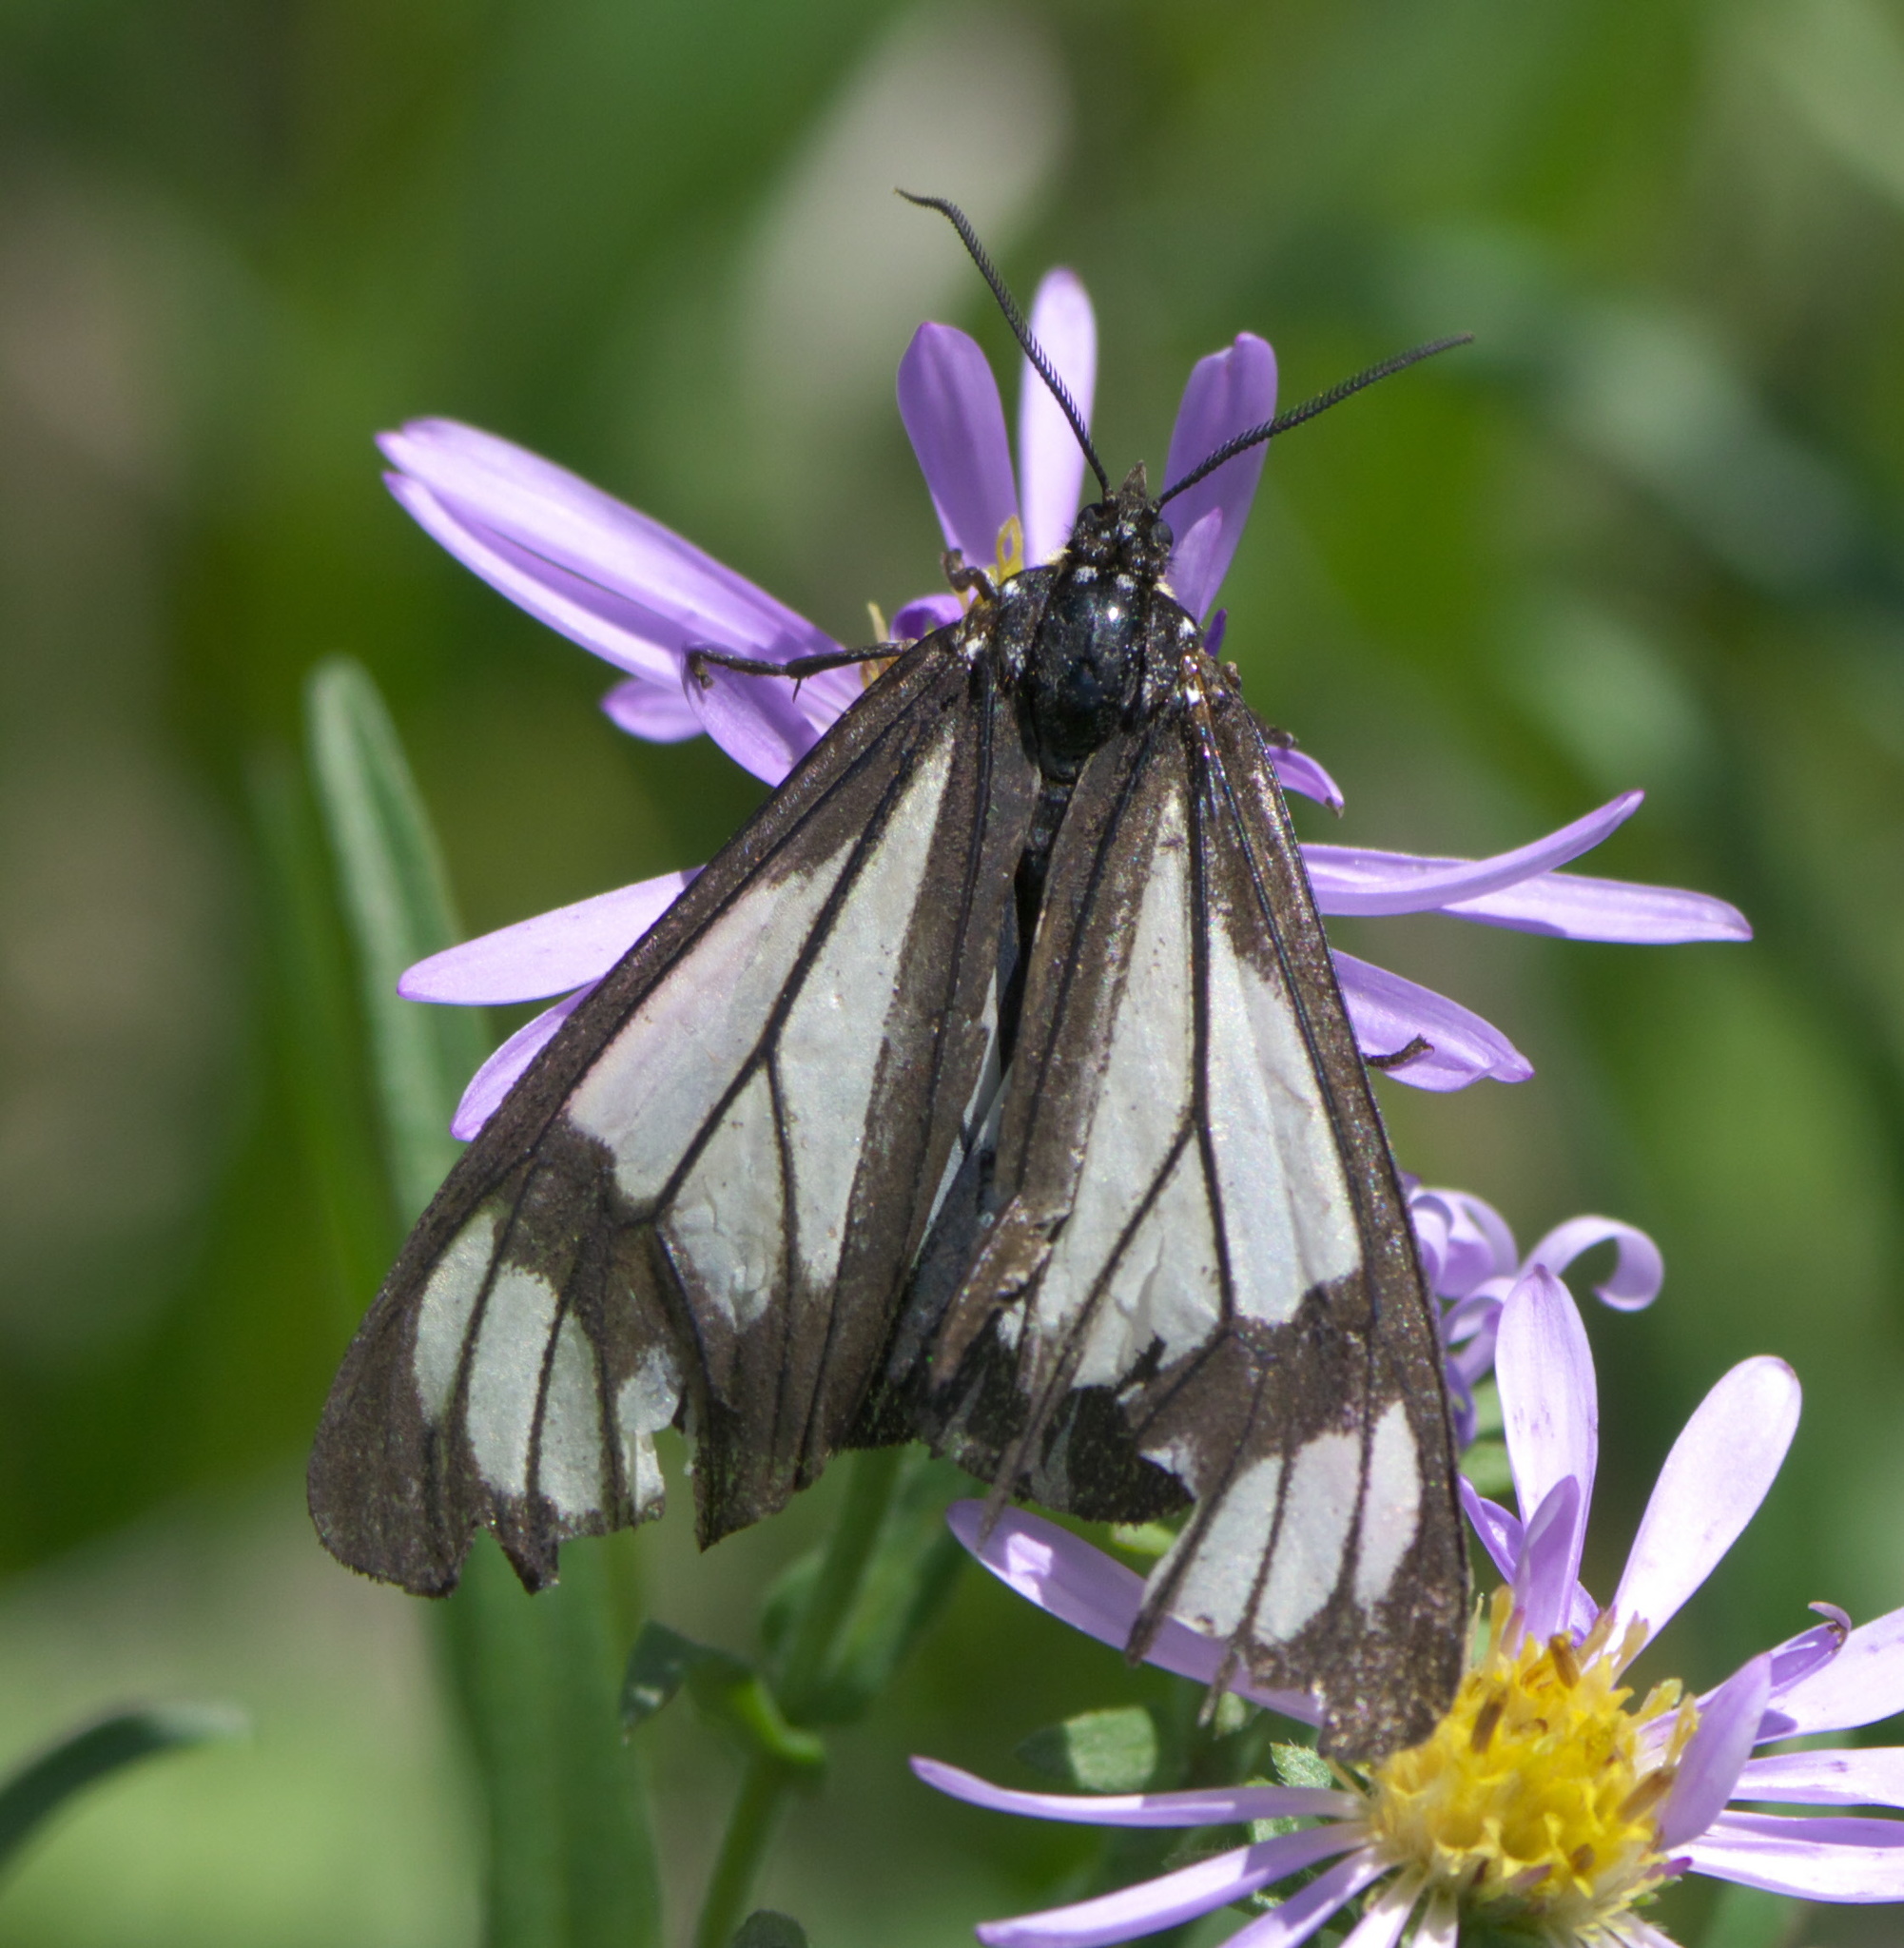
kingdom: Animalia
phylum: Arthropoda
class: Insecta
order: Lepidoptera
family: Erebidae
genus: Gnophaela
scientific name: Gnophaela vermiculata
